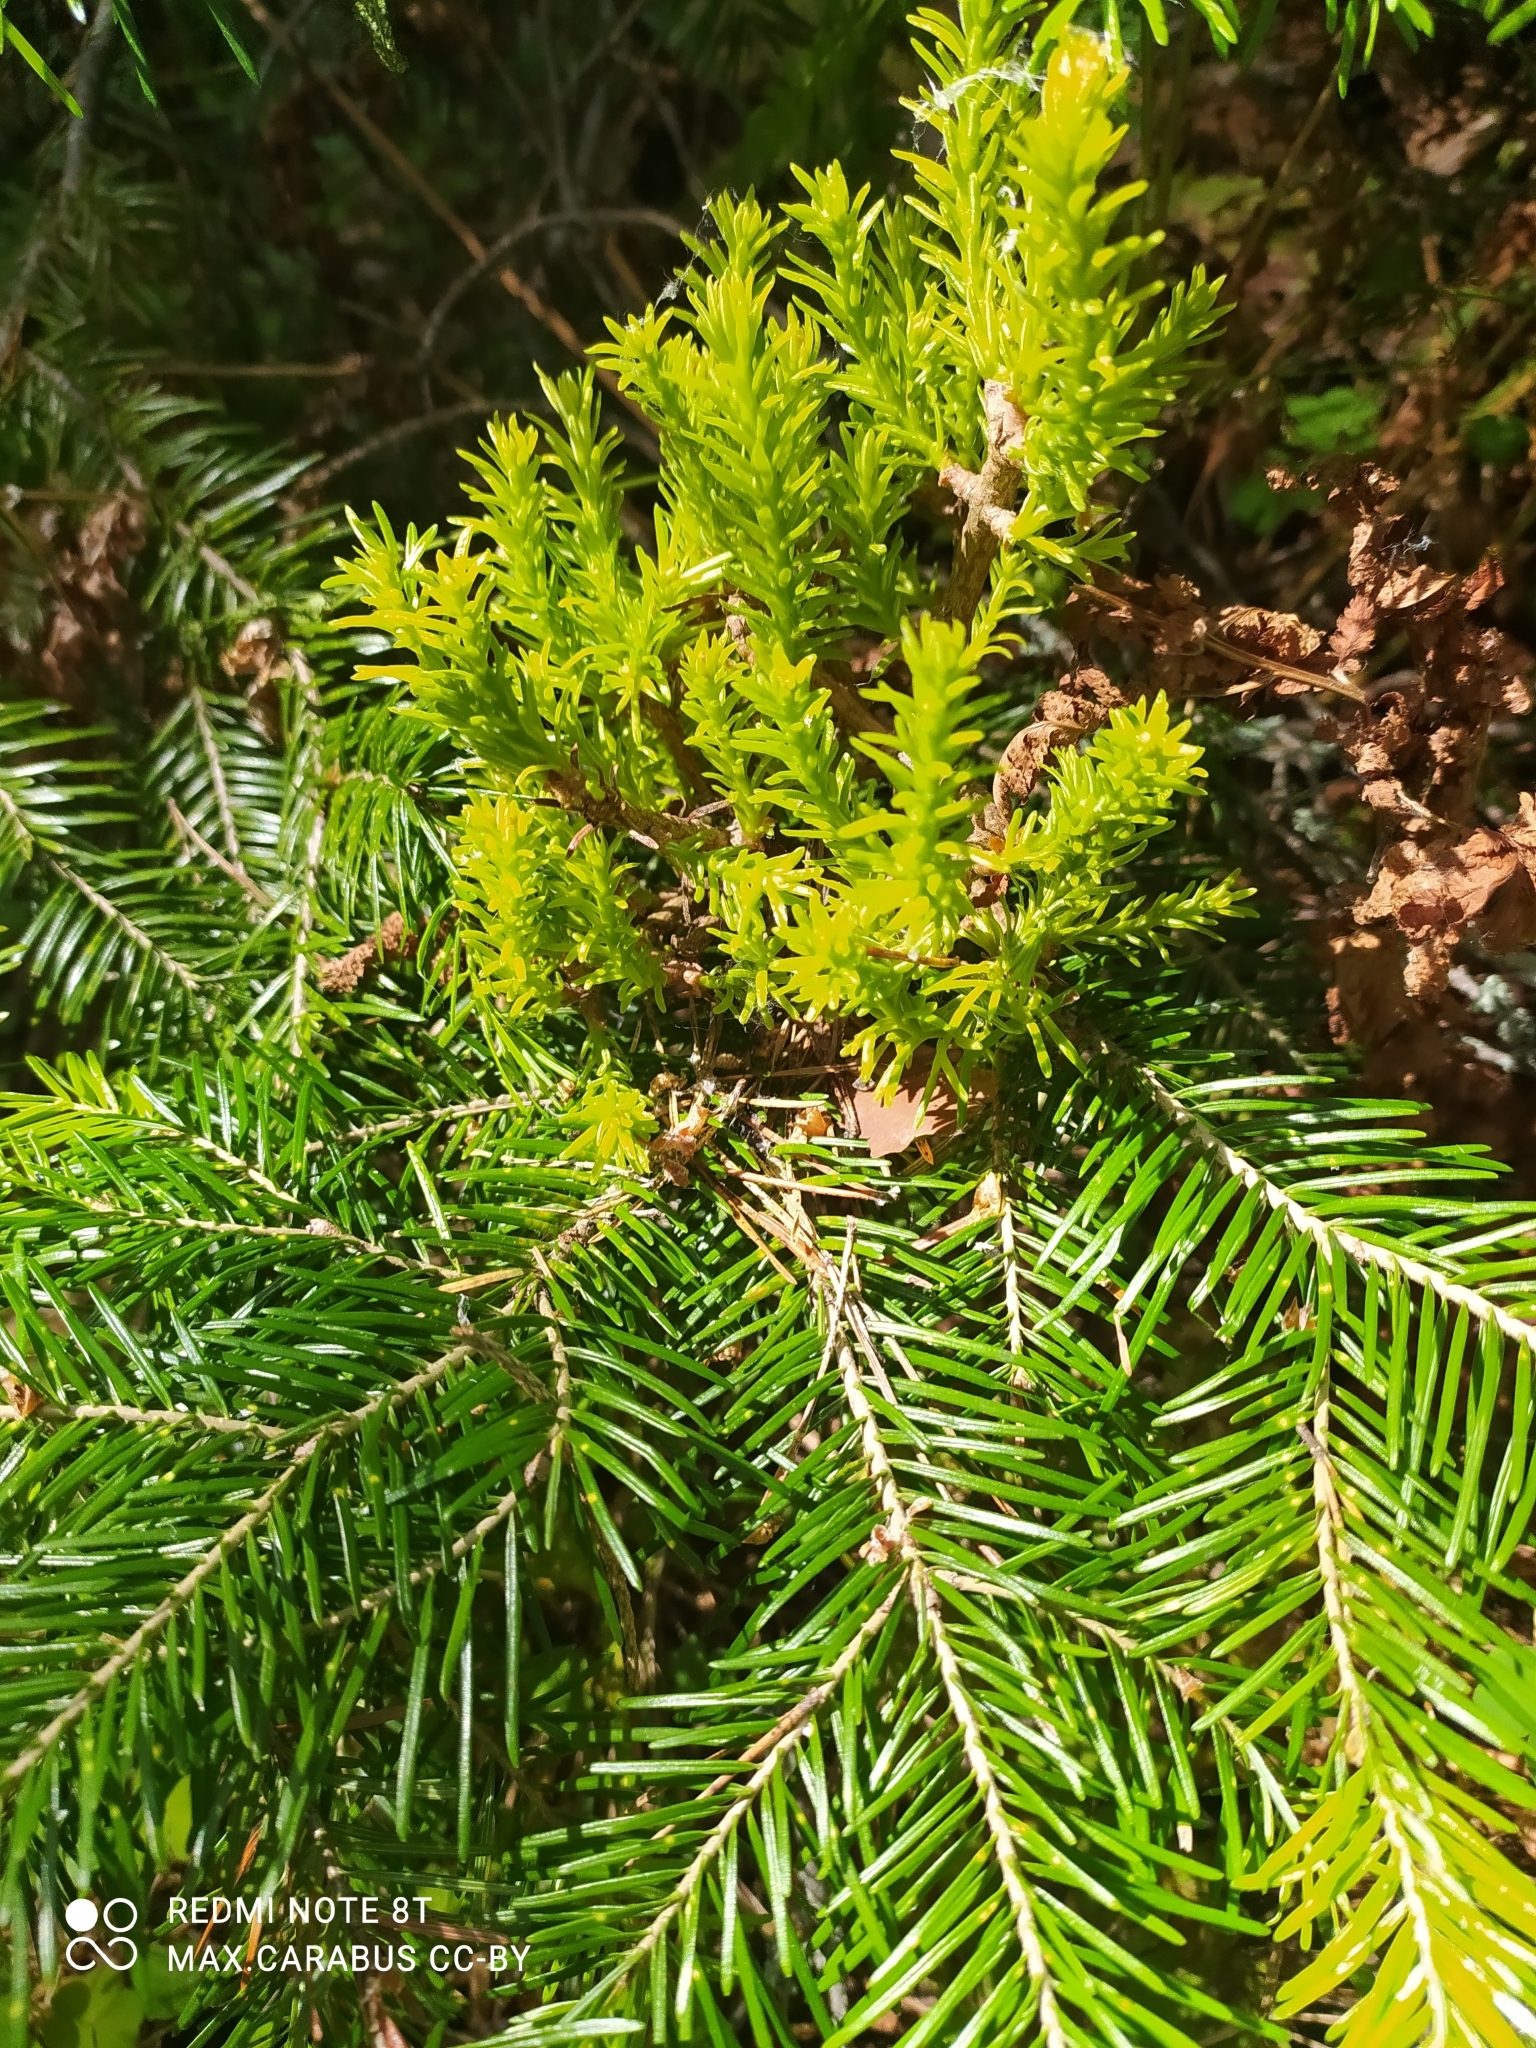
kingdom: Plantae
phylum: Tracheophyta
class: Pinopsida
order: Pinales
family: Pinaceae
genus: Abies
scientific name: Abies sibirica
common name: Siberian fir
